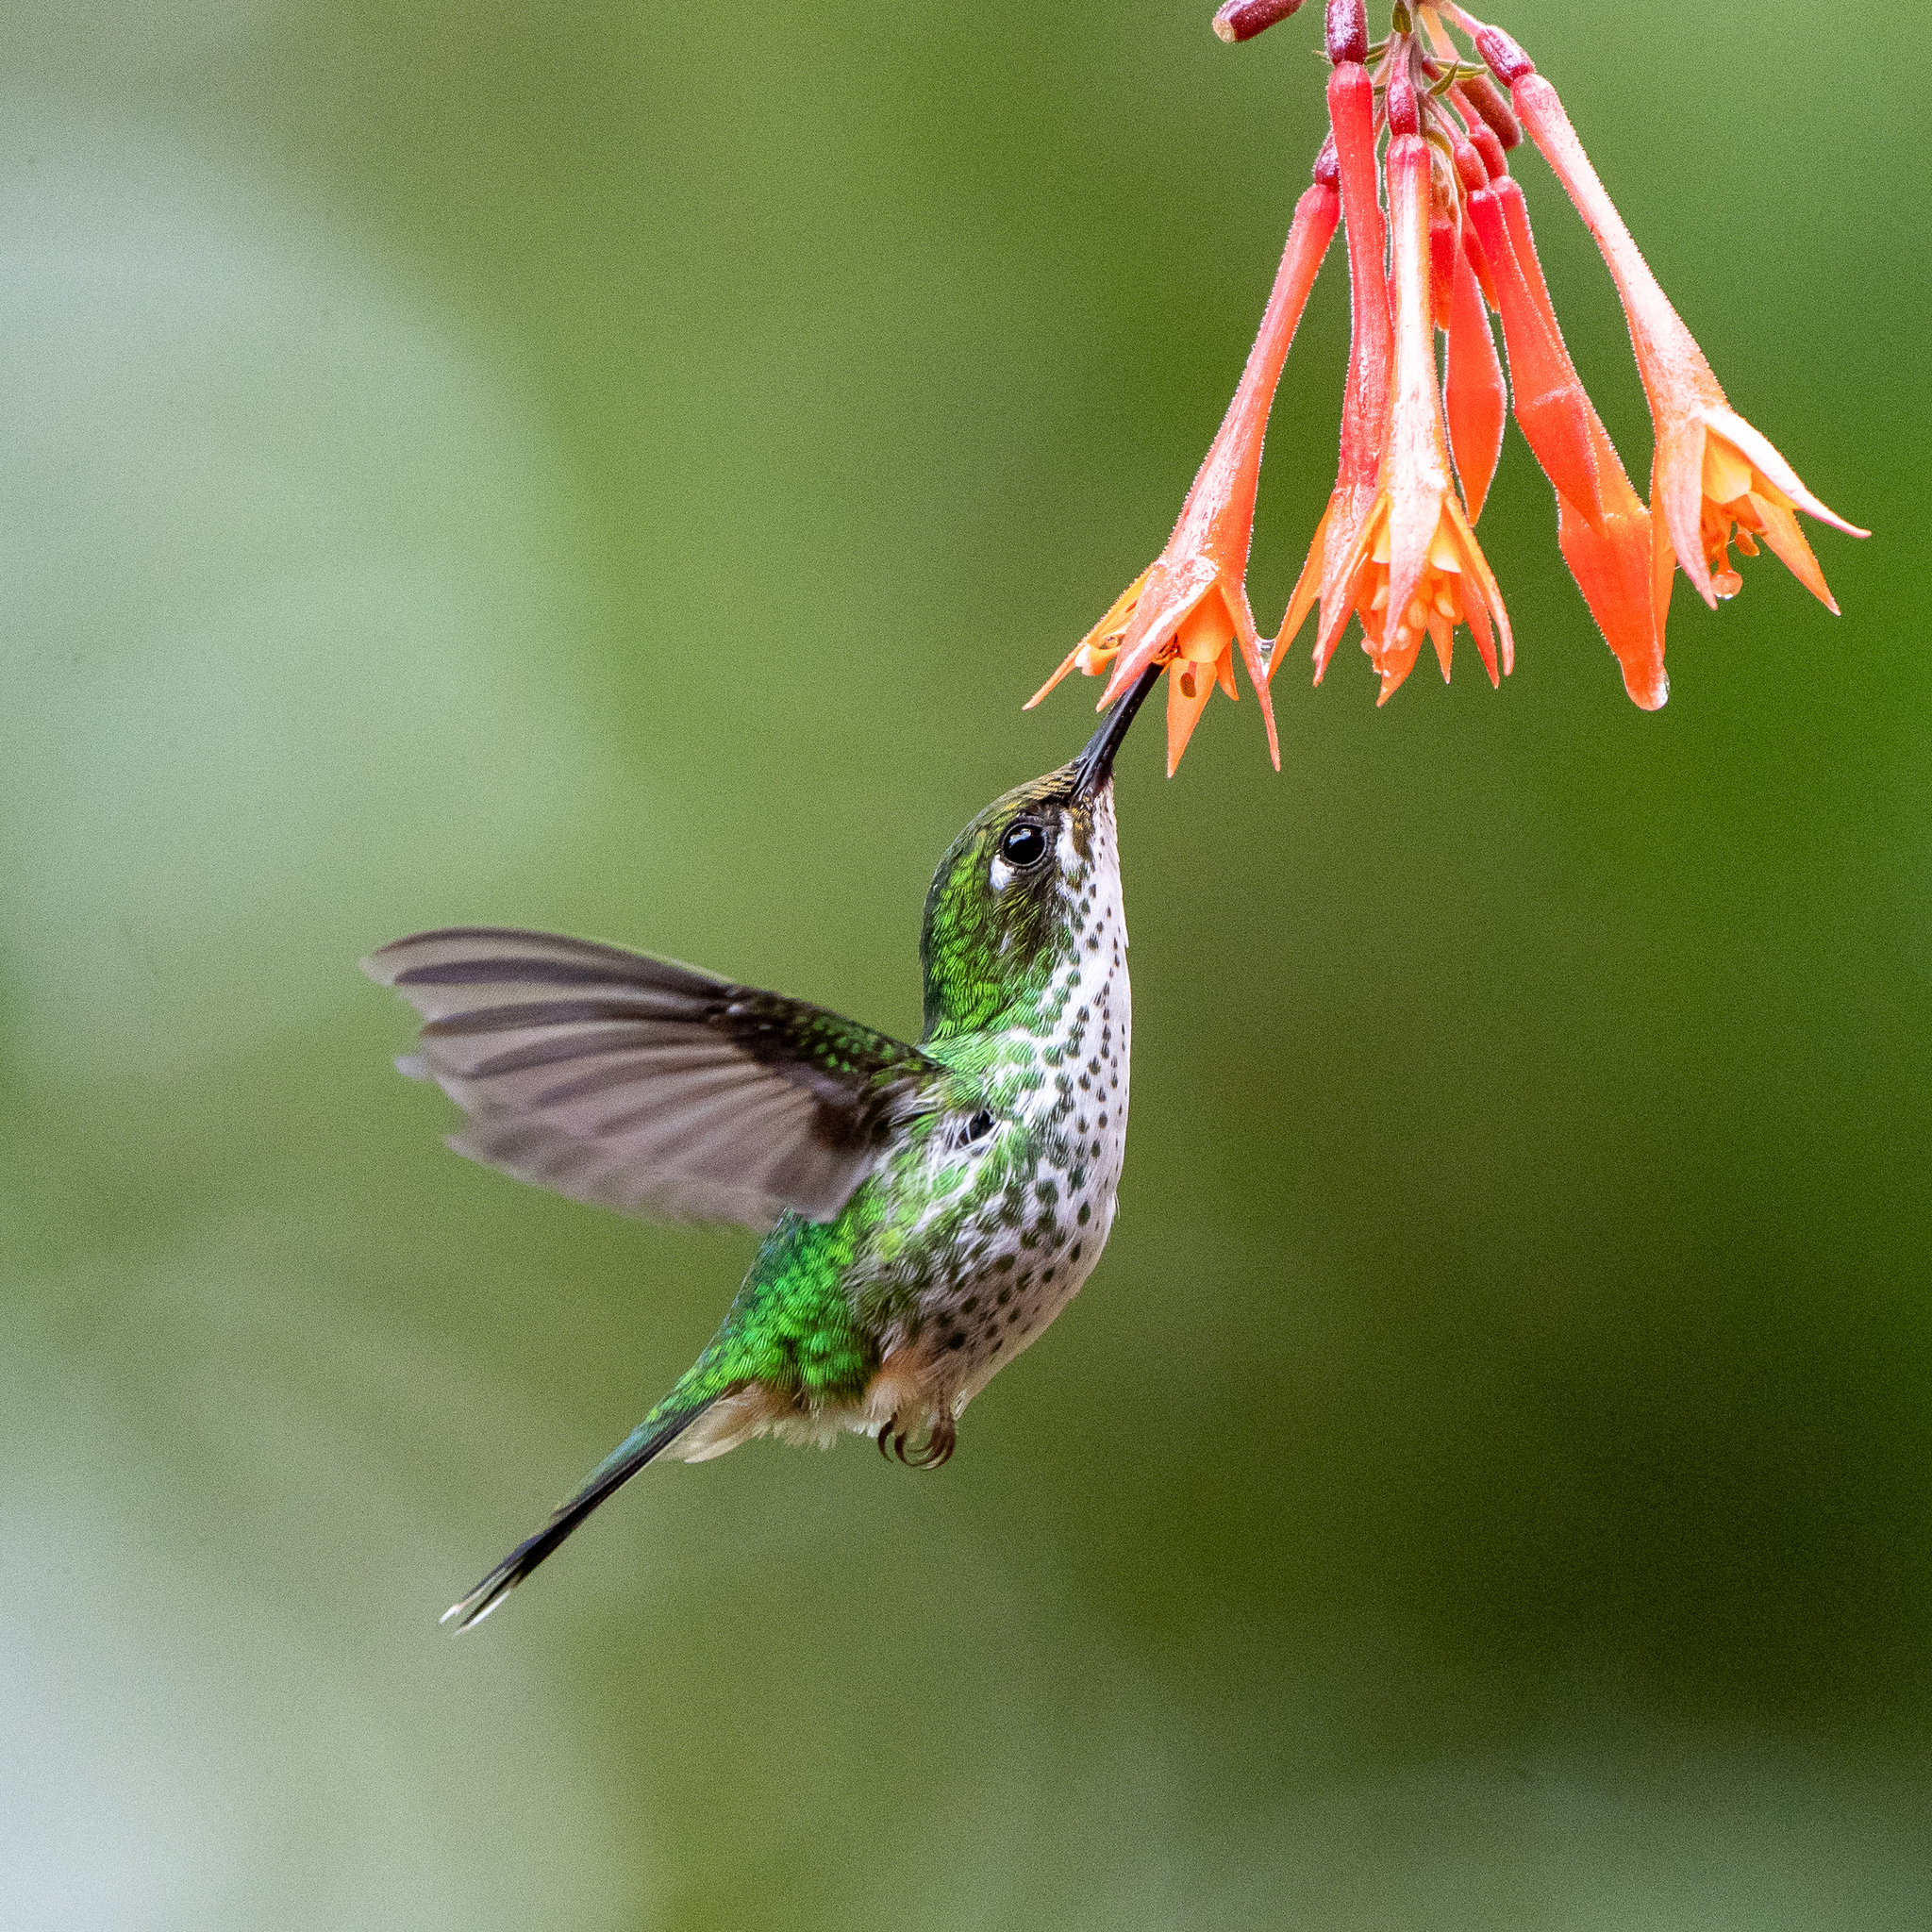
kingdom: Animalia
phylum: Chordata
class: Aves
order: Apodiformes
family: Trochilidae
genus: Ocreatus
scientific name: Ocreatus underwoodii
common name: Booted racket-tail
